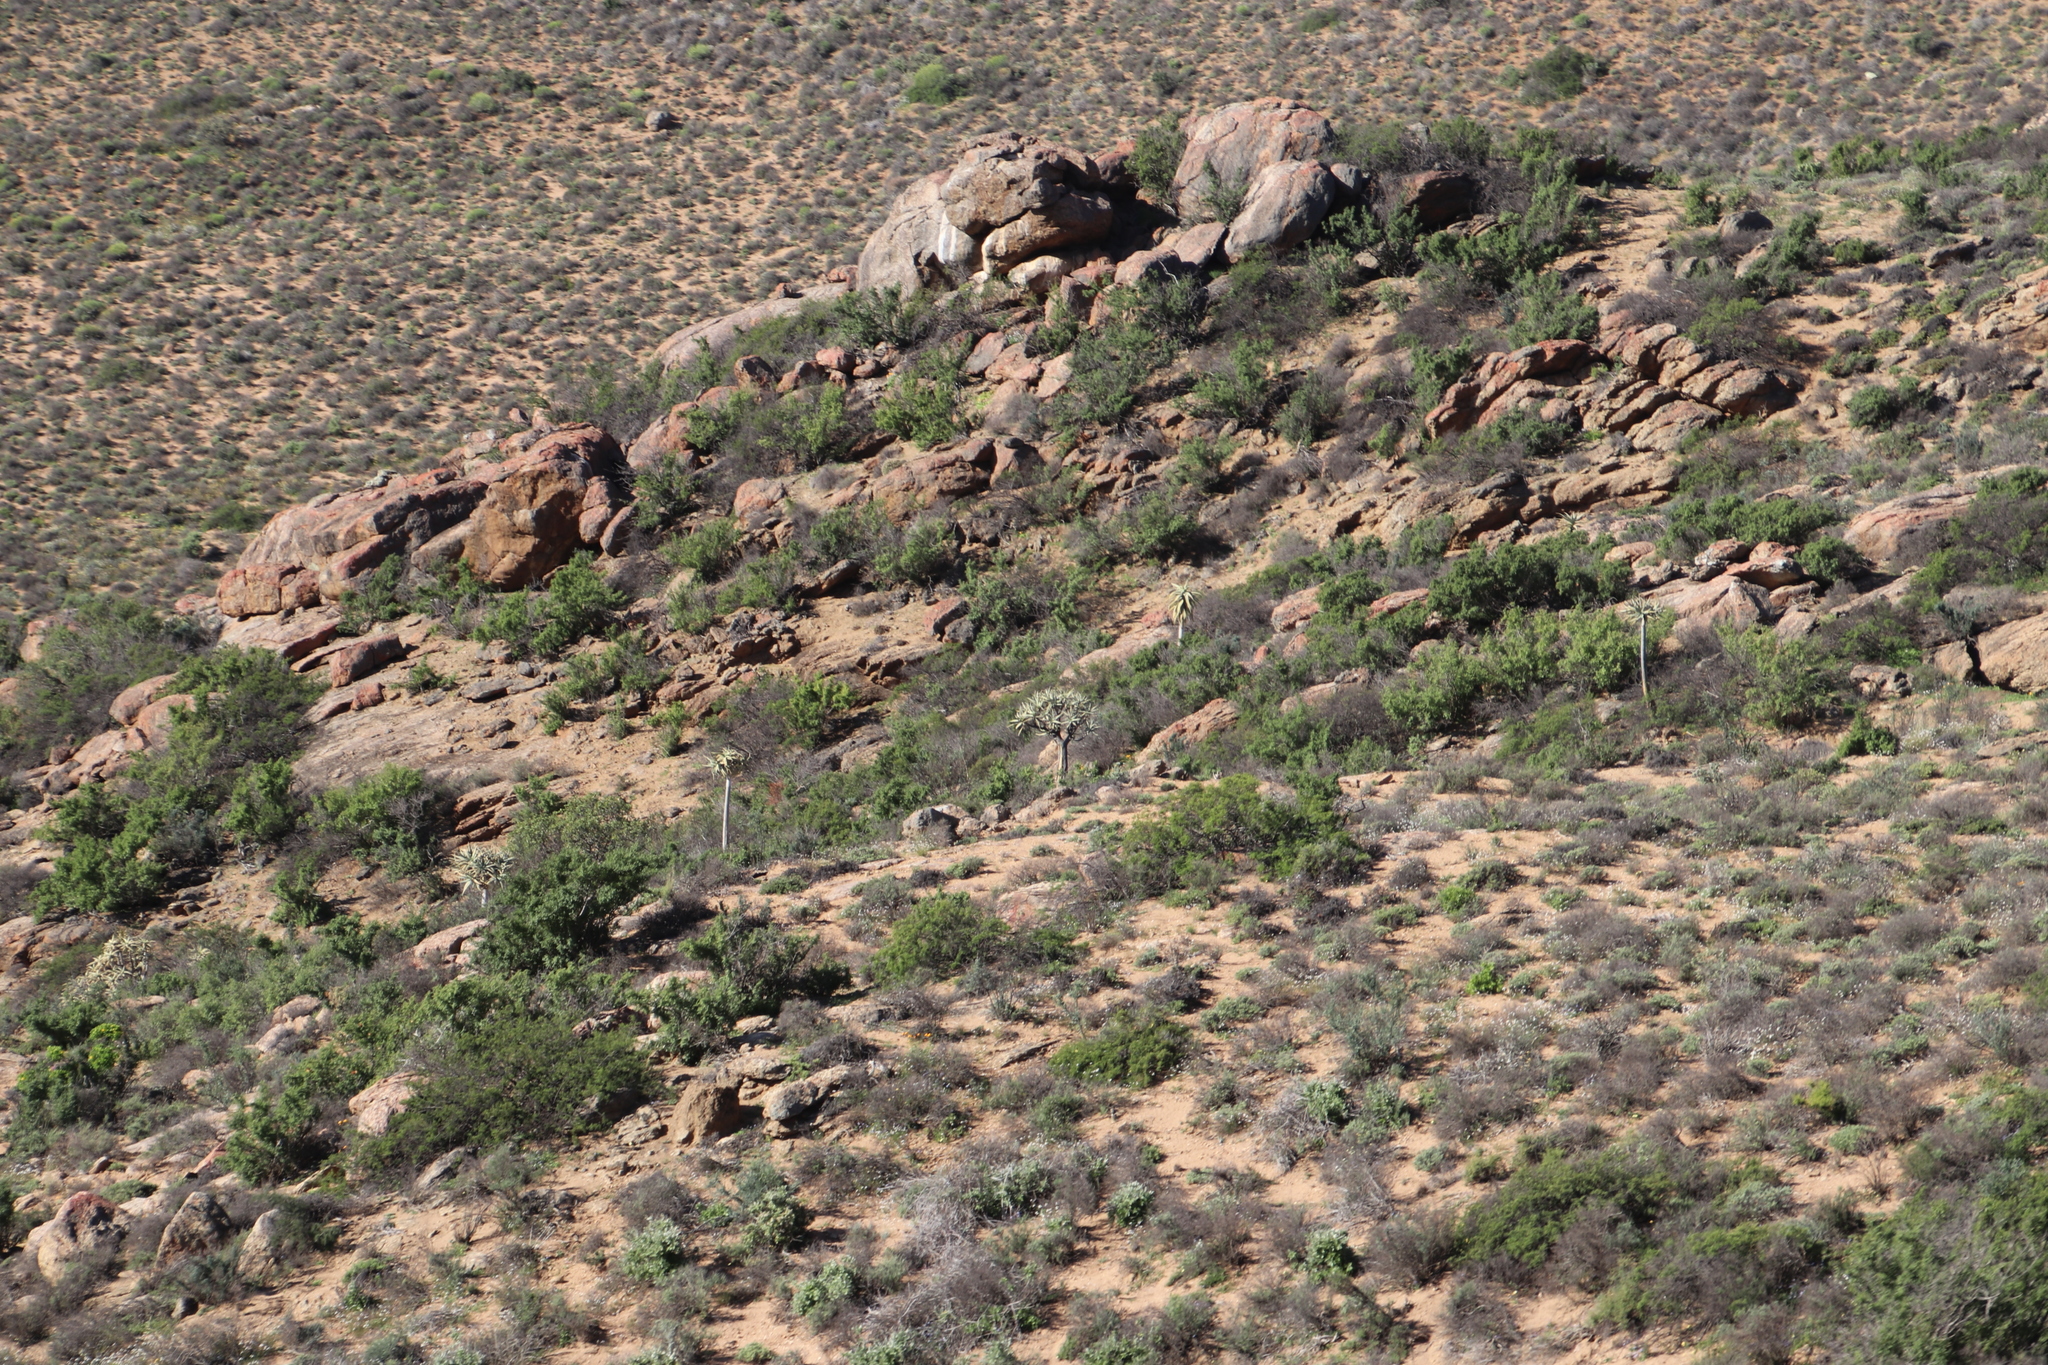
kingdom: Plantae
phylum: Tracheophyta
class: Liliopsida
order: Asparagales
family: Asphodelaceae
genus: Aloidendron
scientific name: Aloidendron dichotomum
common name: Quiver tree
